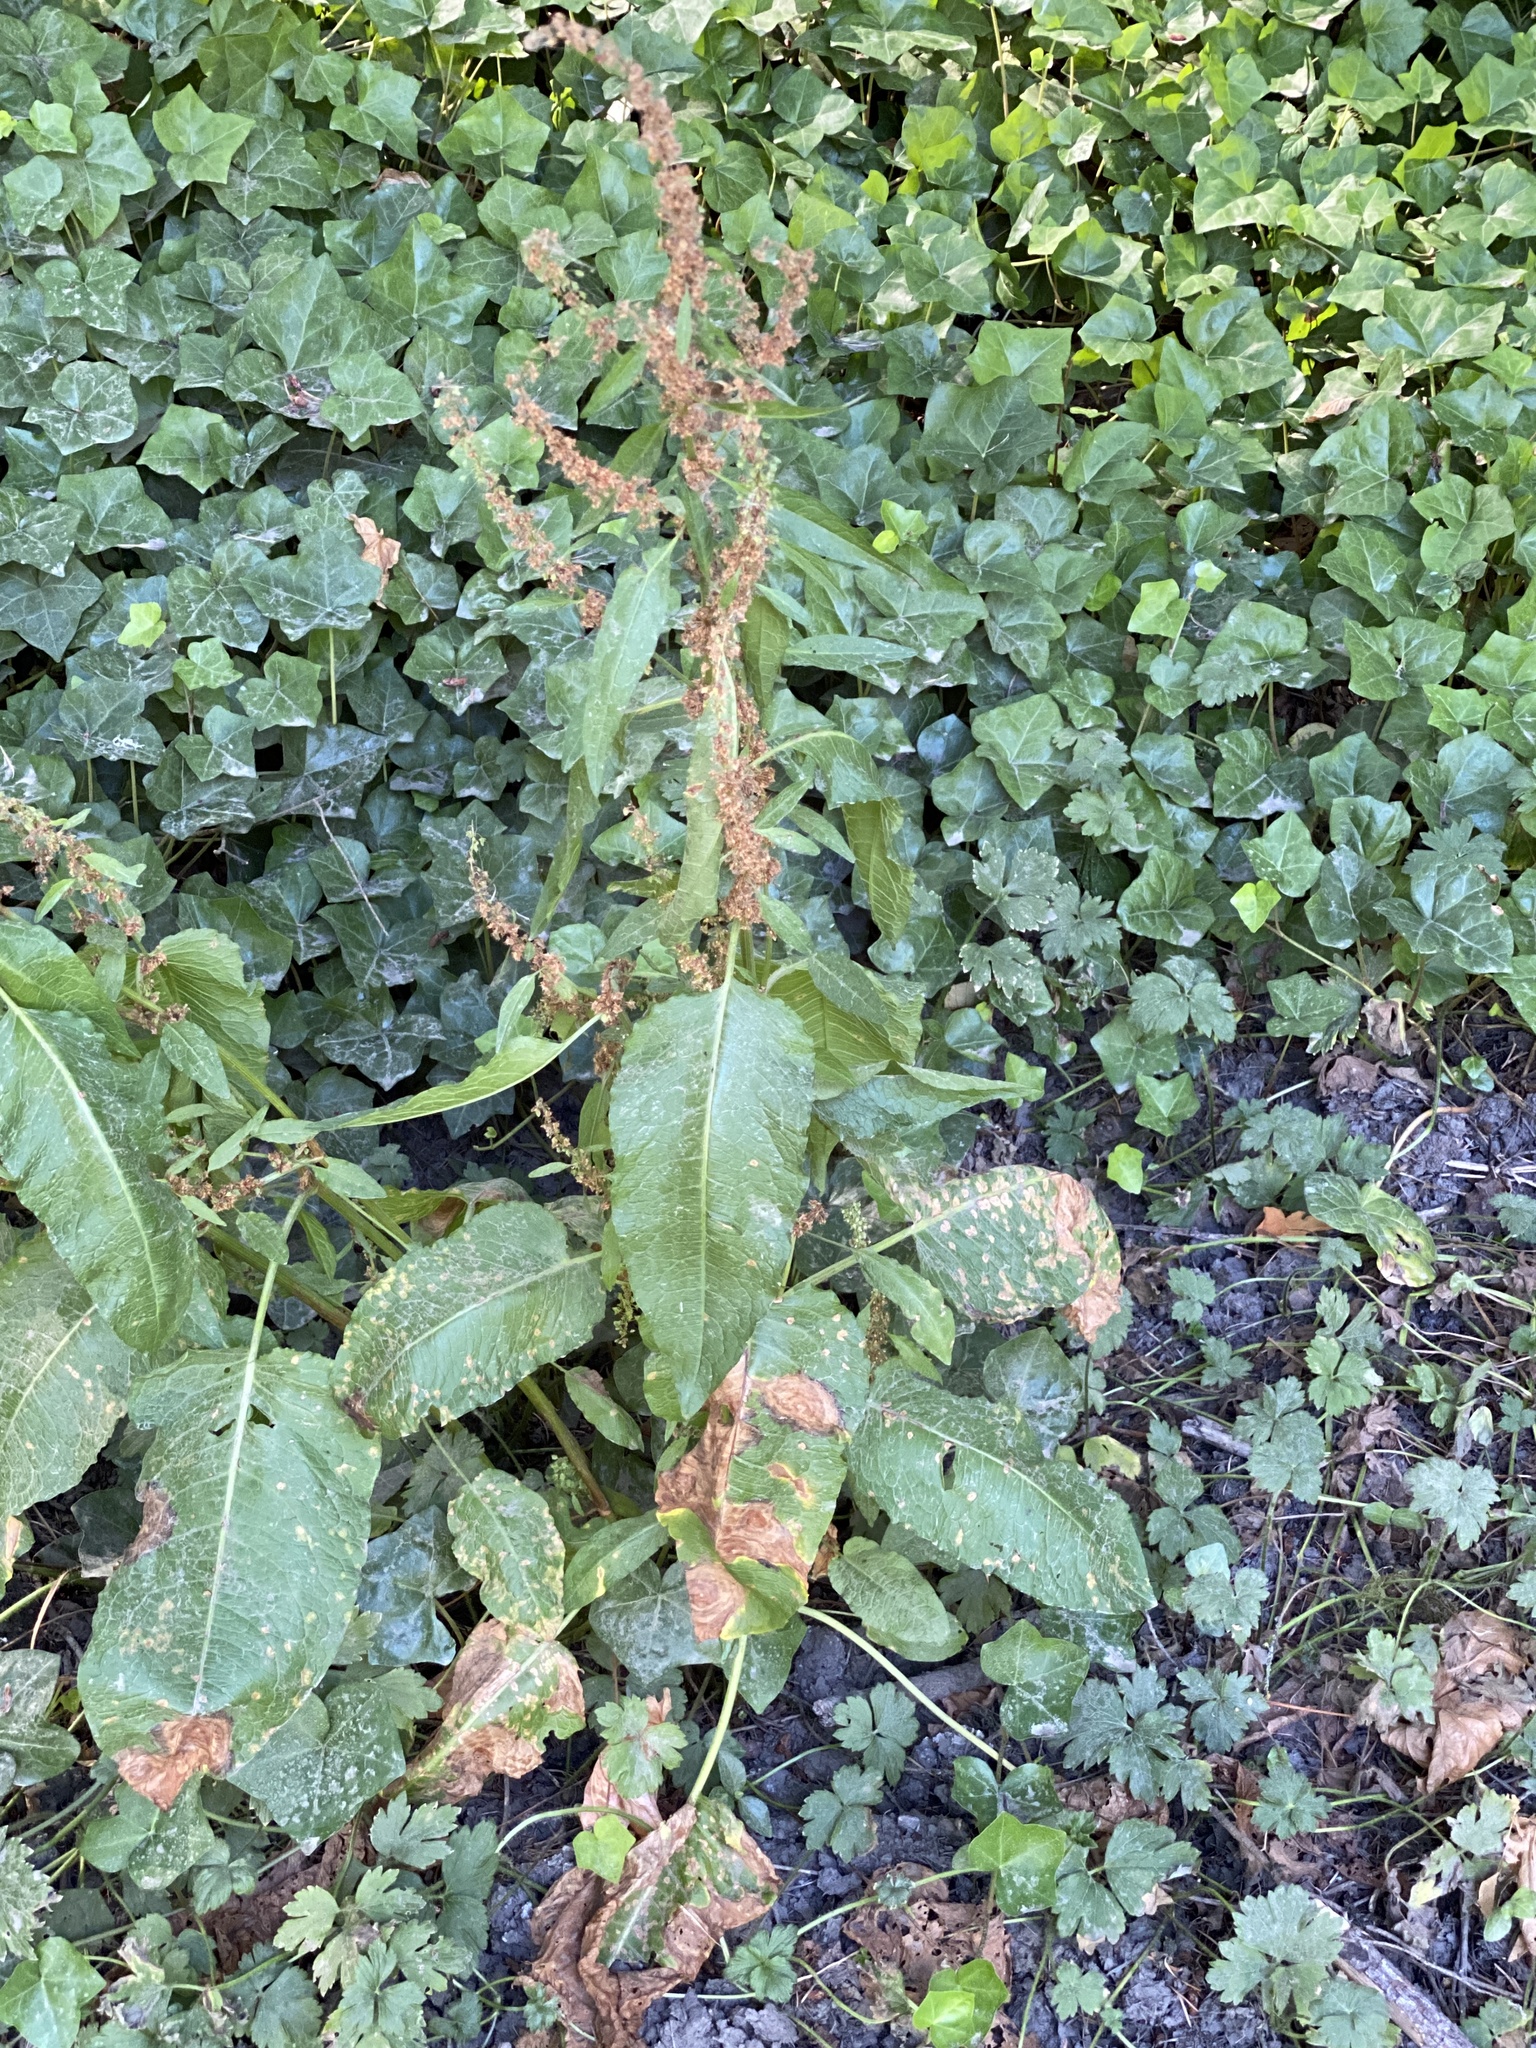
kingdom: Plantae
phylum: Tracheophyta
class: Magnoliopsida
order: Caryophyllales
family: Polygonaceae
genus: Rumex
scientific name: Rumex obtusifolius
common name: Bitter dock
